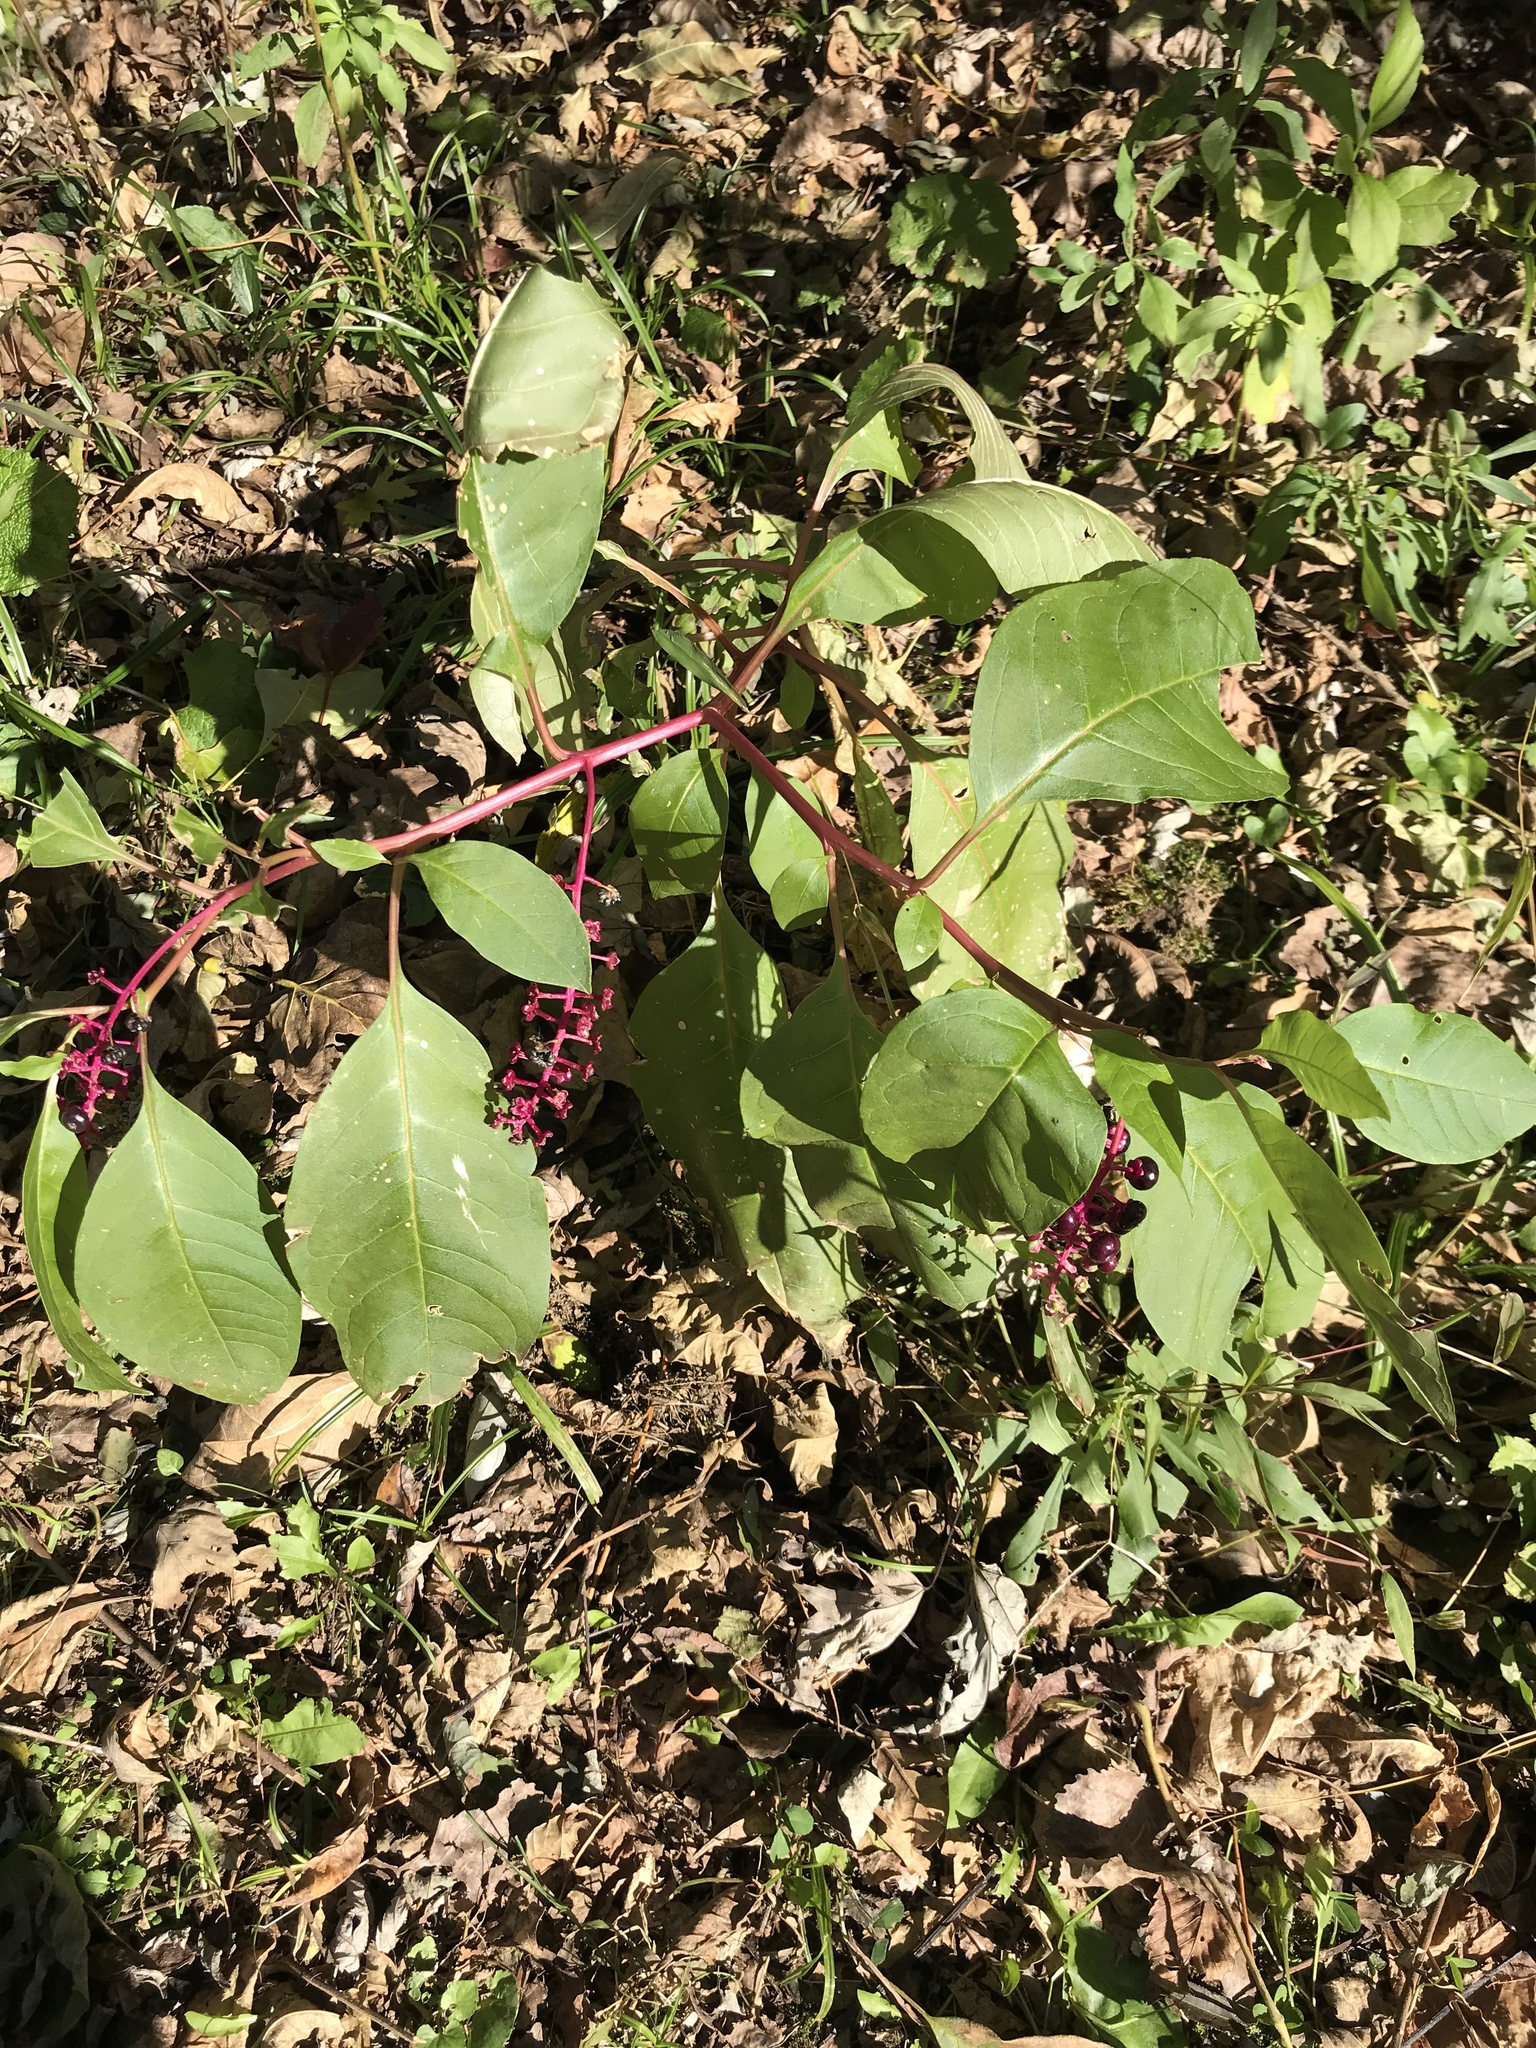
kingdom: Plantae
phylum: Tracheophyta
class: Magnoliopsida
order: Caryophyllales
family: Phytolaccaceae
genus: Phytolacca
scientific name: Phytolacca americana
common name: American pokeweed
